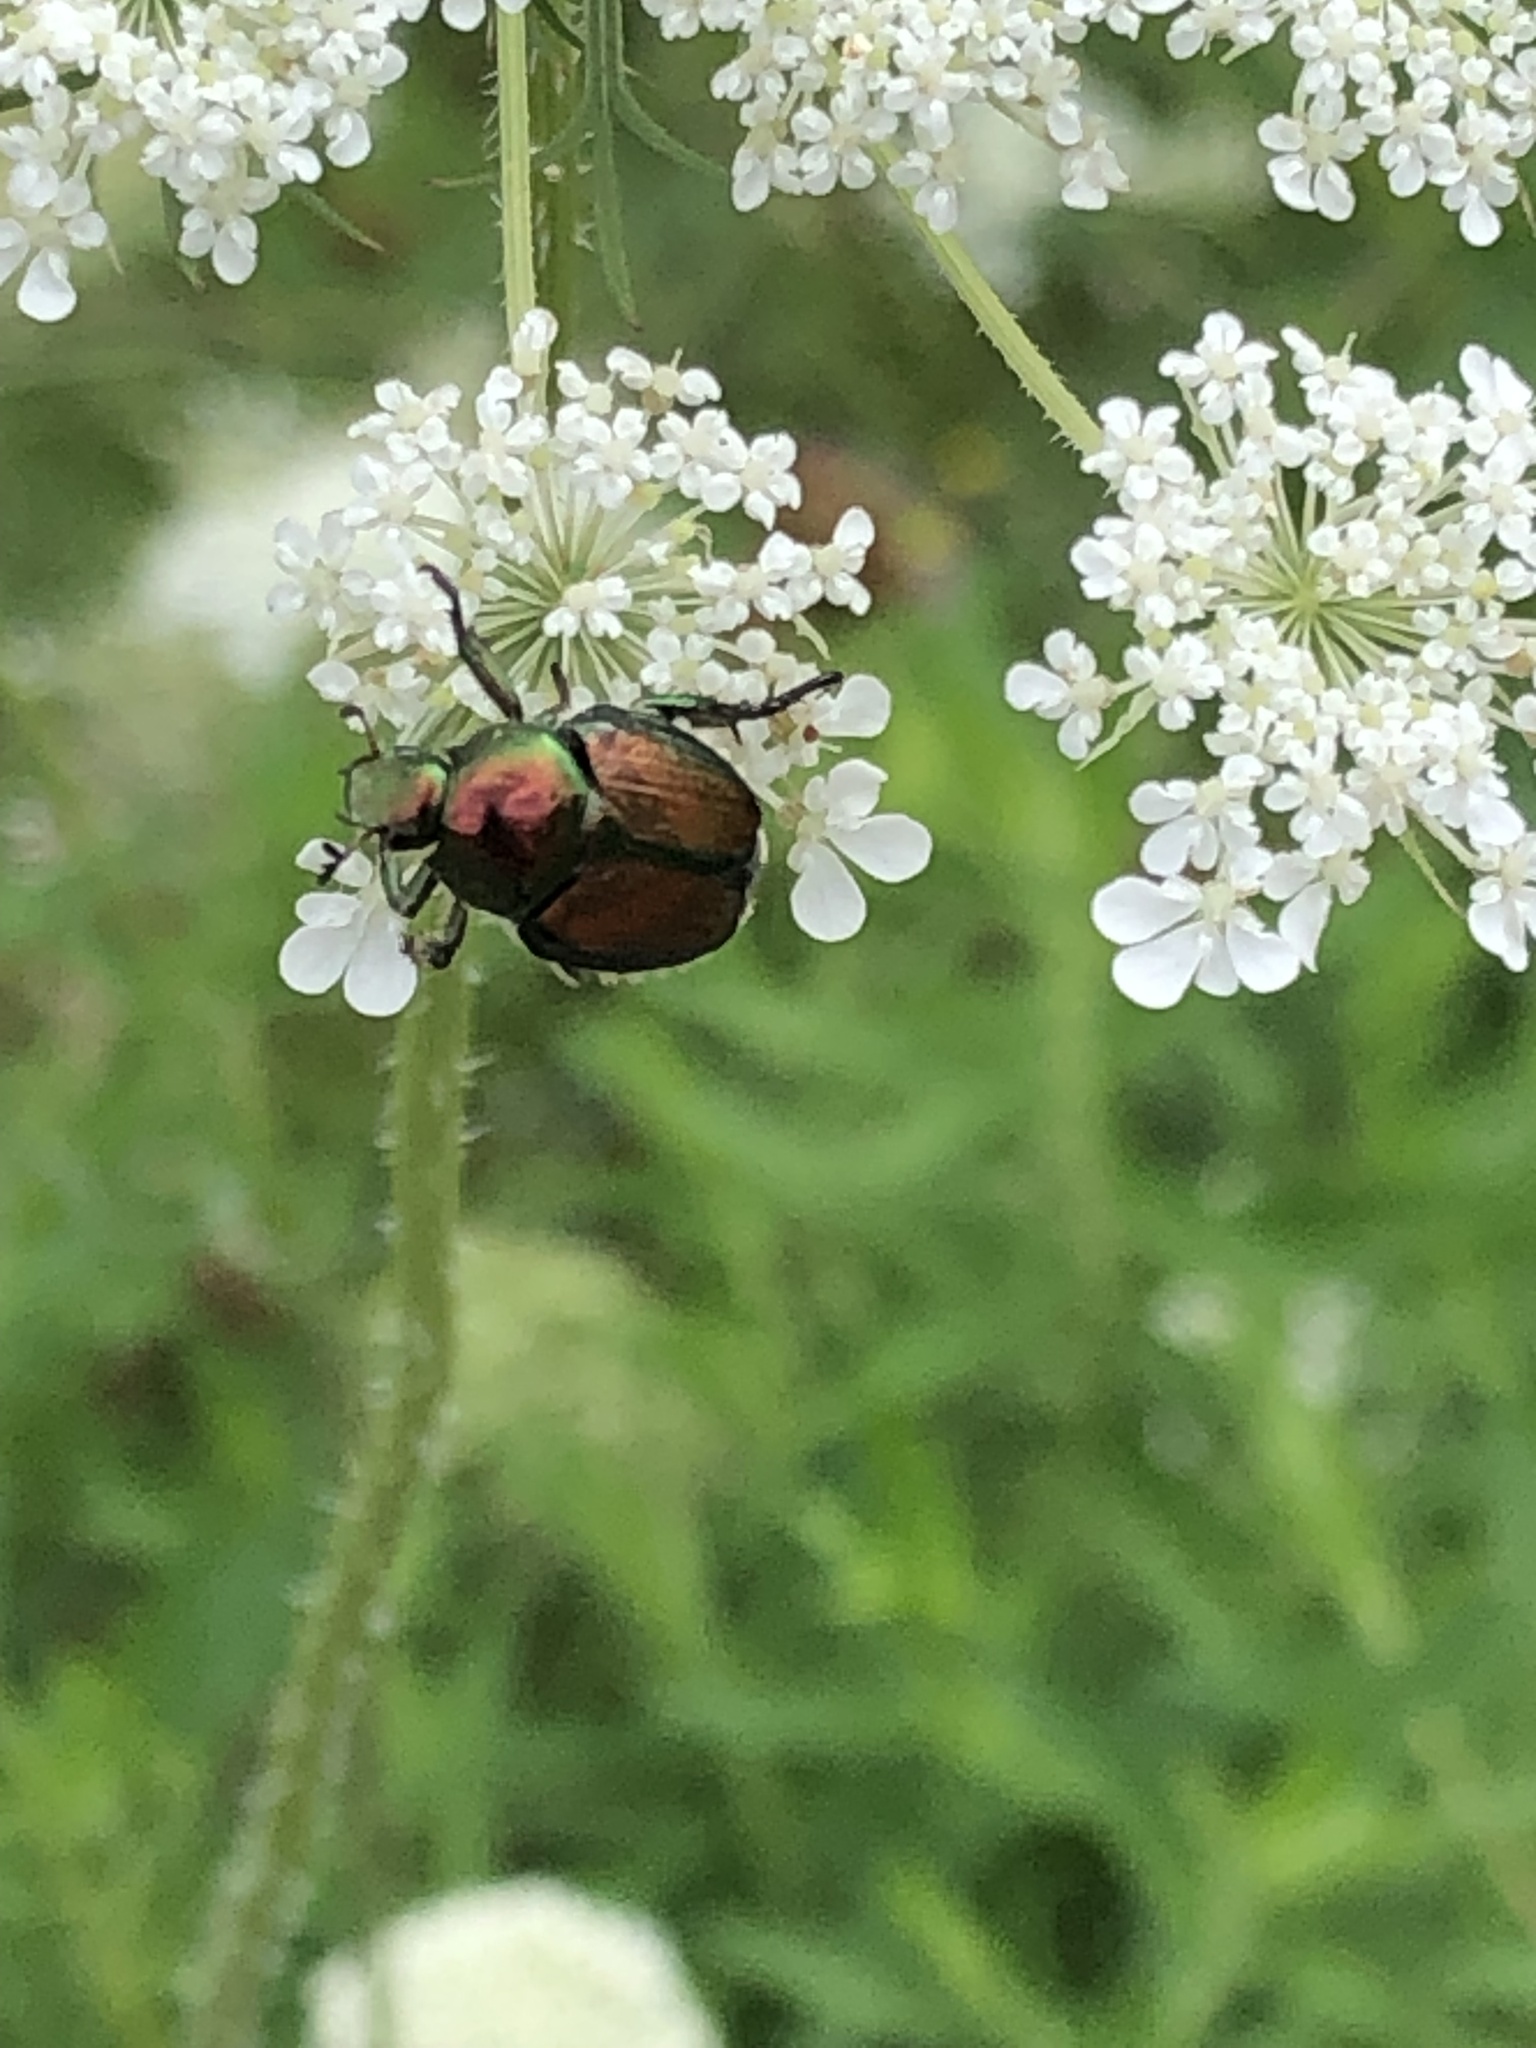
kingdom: Animalia
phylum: Arthropoda
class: Insecta
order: Coleoptera
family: Scarabaeidae
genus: Popillia
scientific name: Popillia japonica
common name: Japanese beetle
